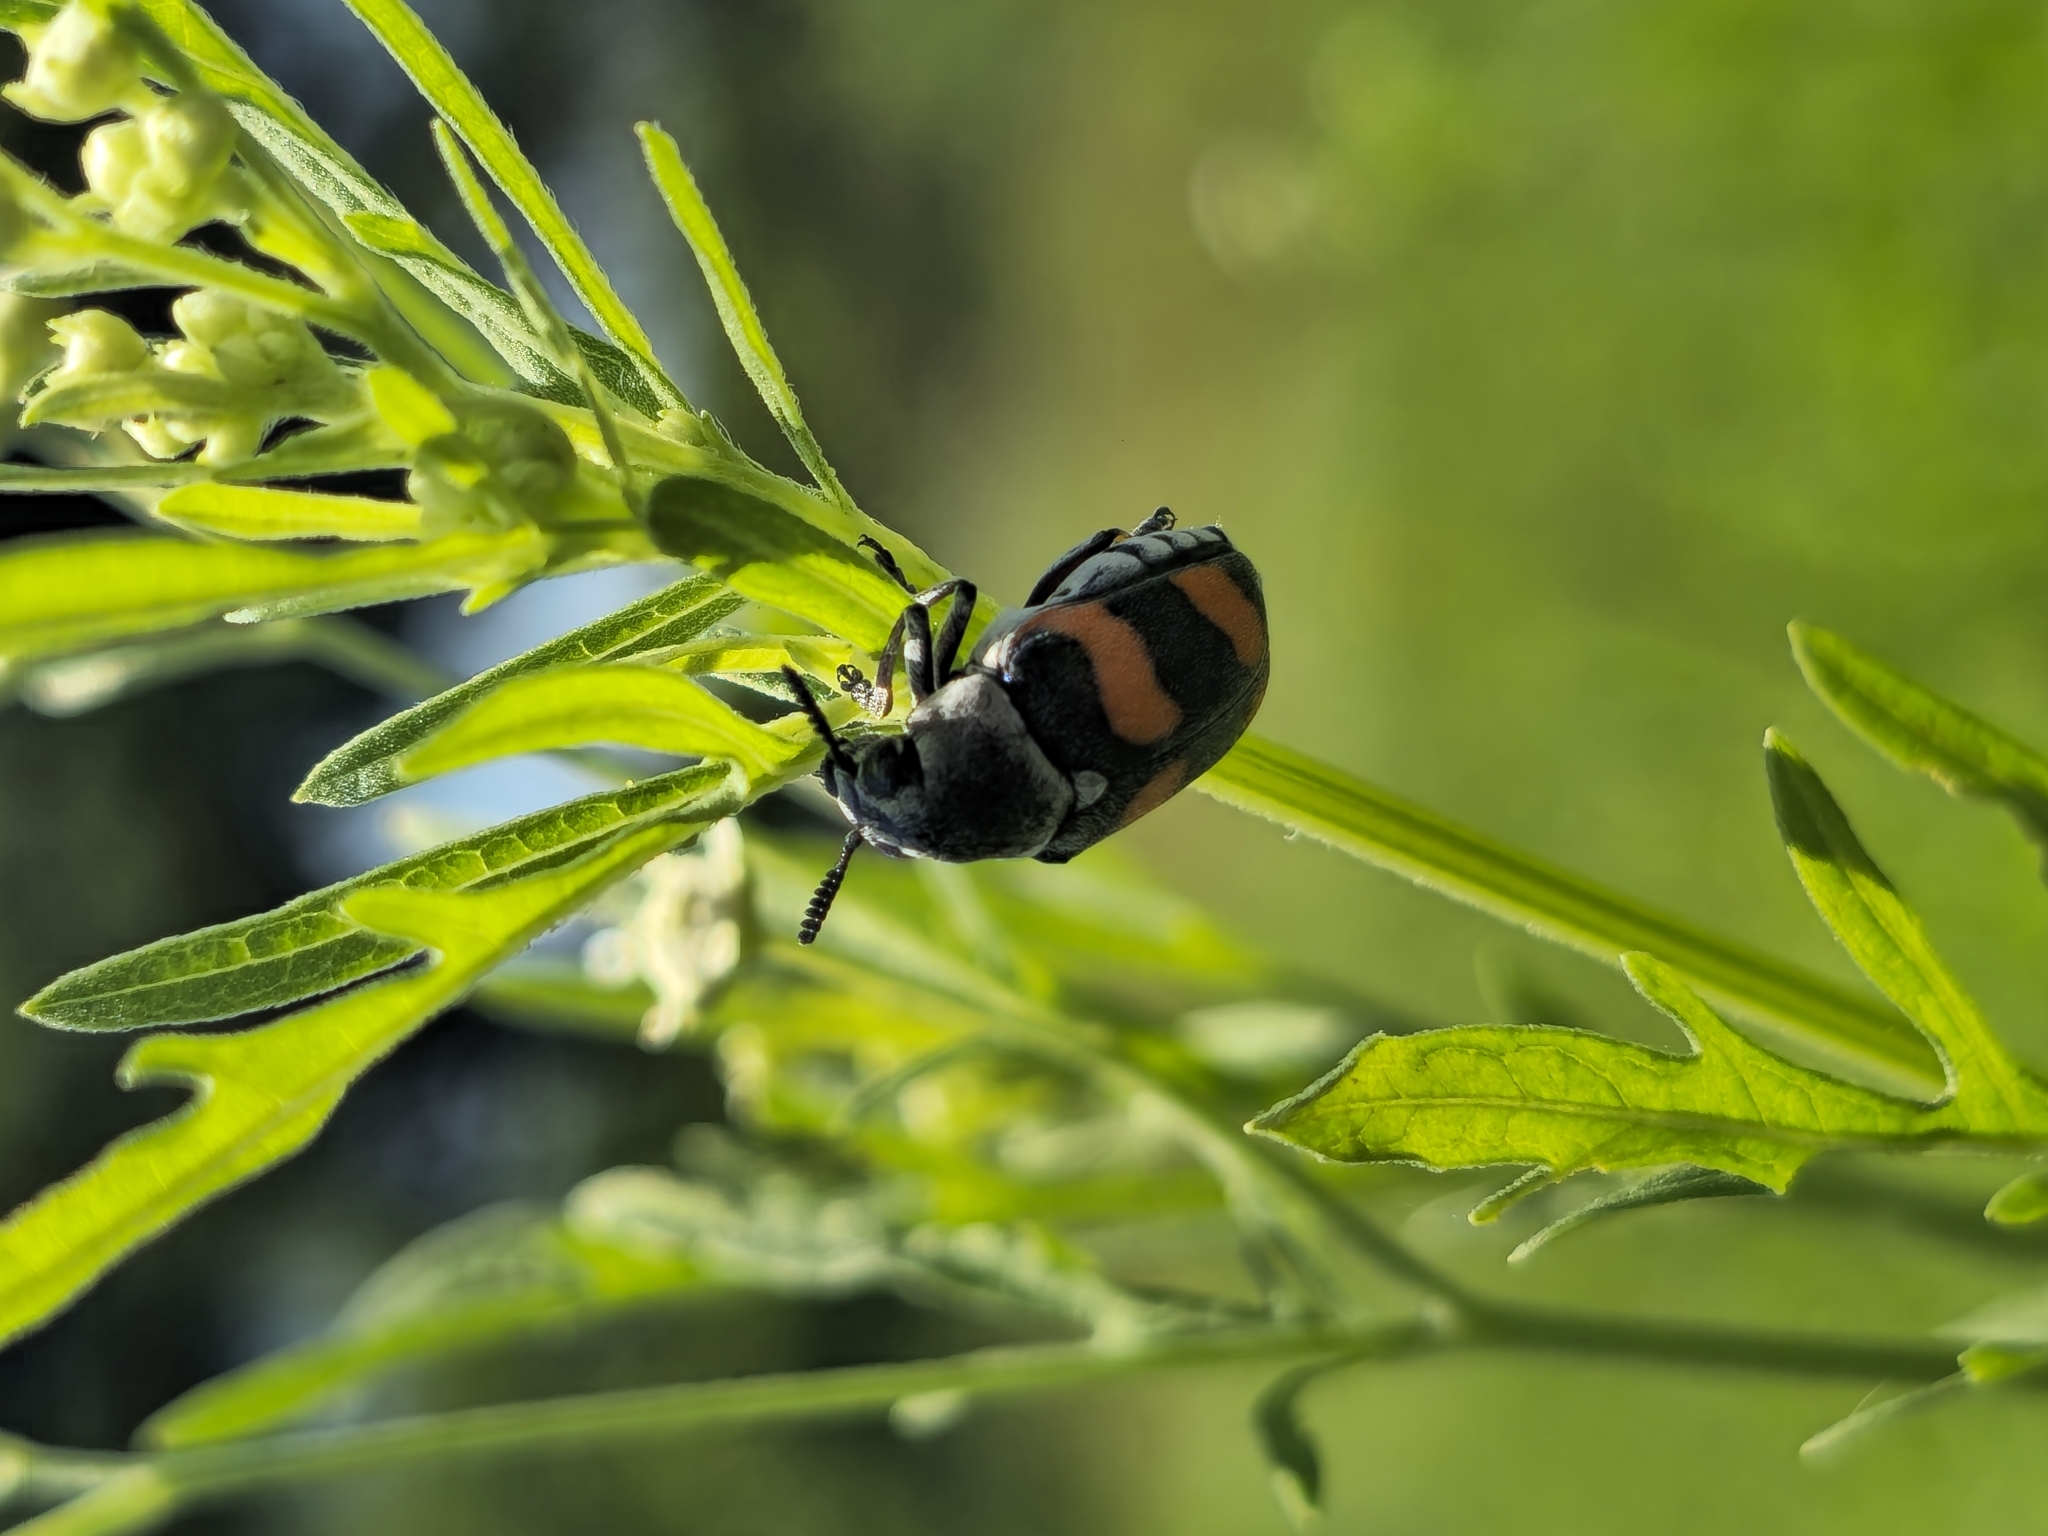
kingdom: Animalia
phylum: Arthropoda
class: Insecta
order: Coleoptera
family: Chrysomelidae
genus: Megalostomis
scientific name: Megalostomis gazella
